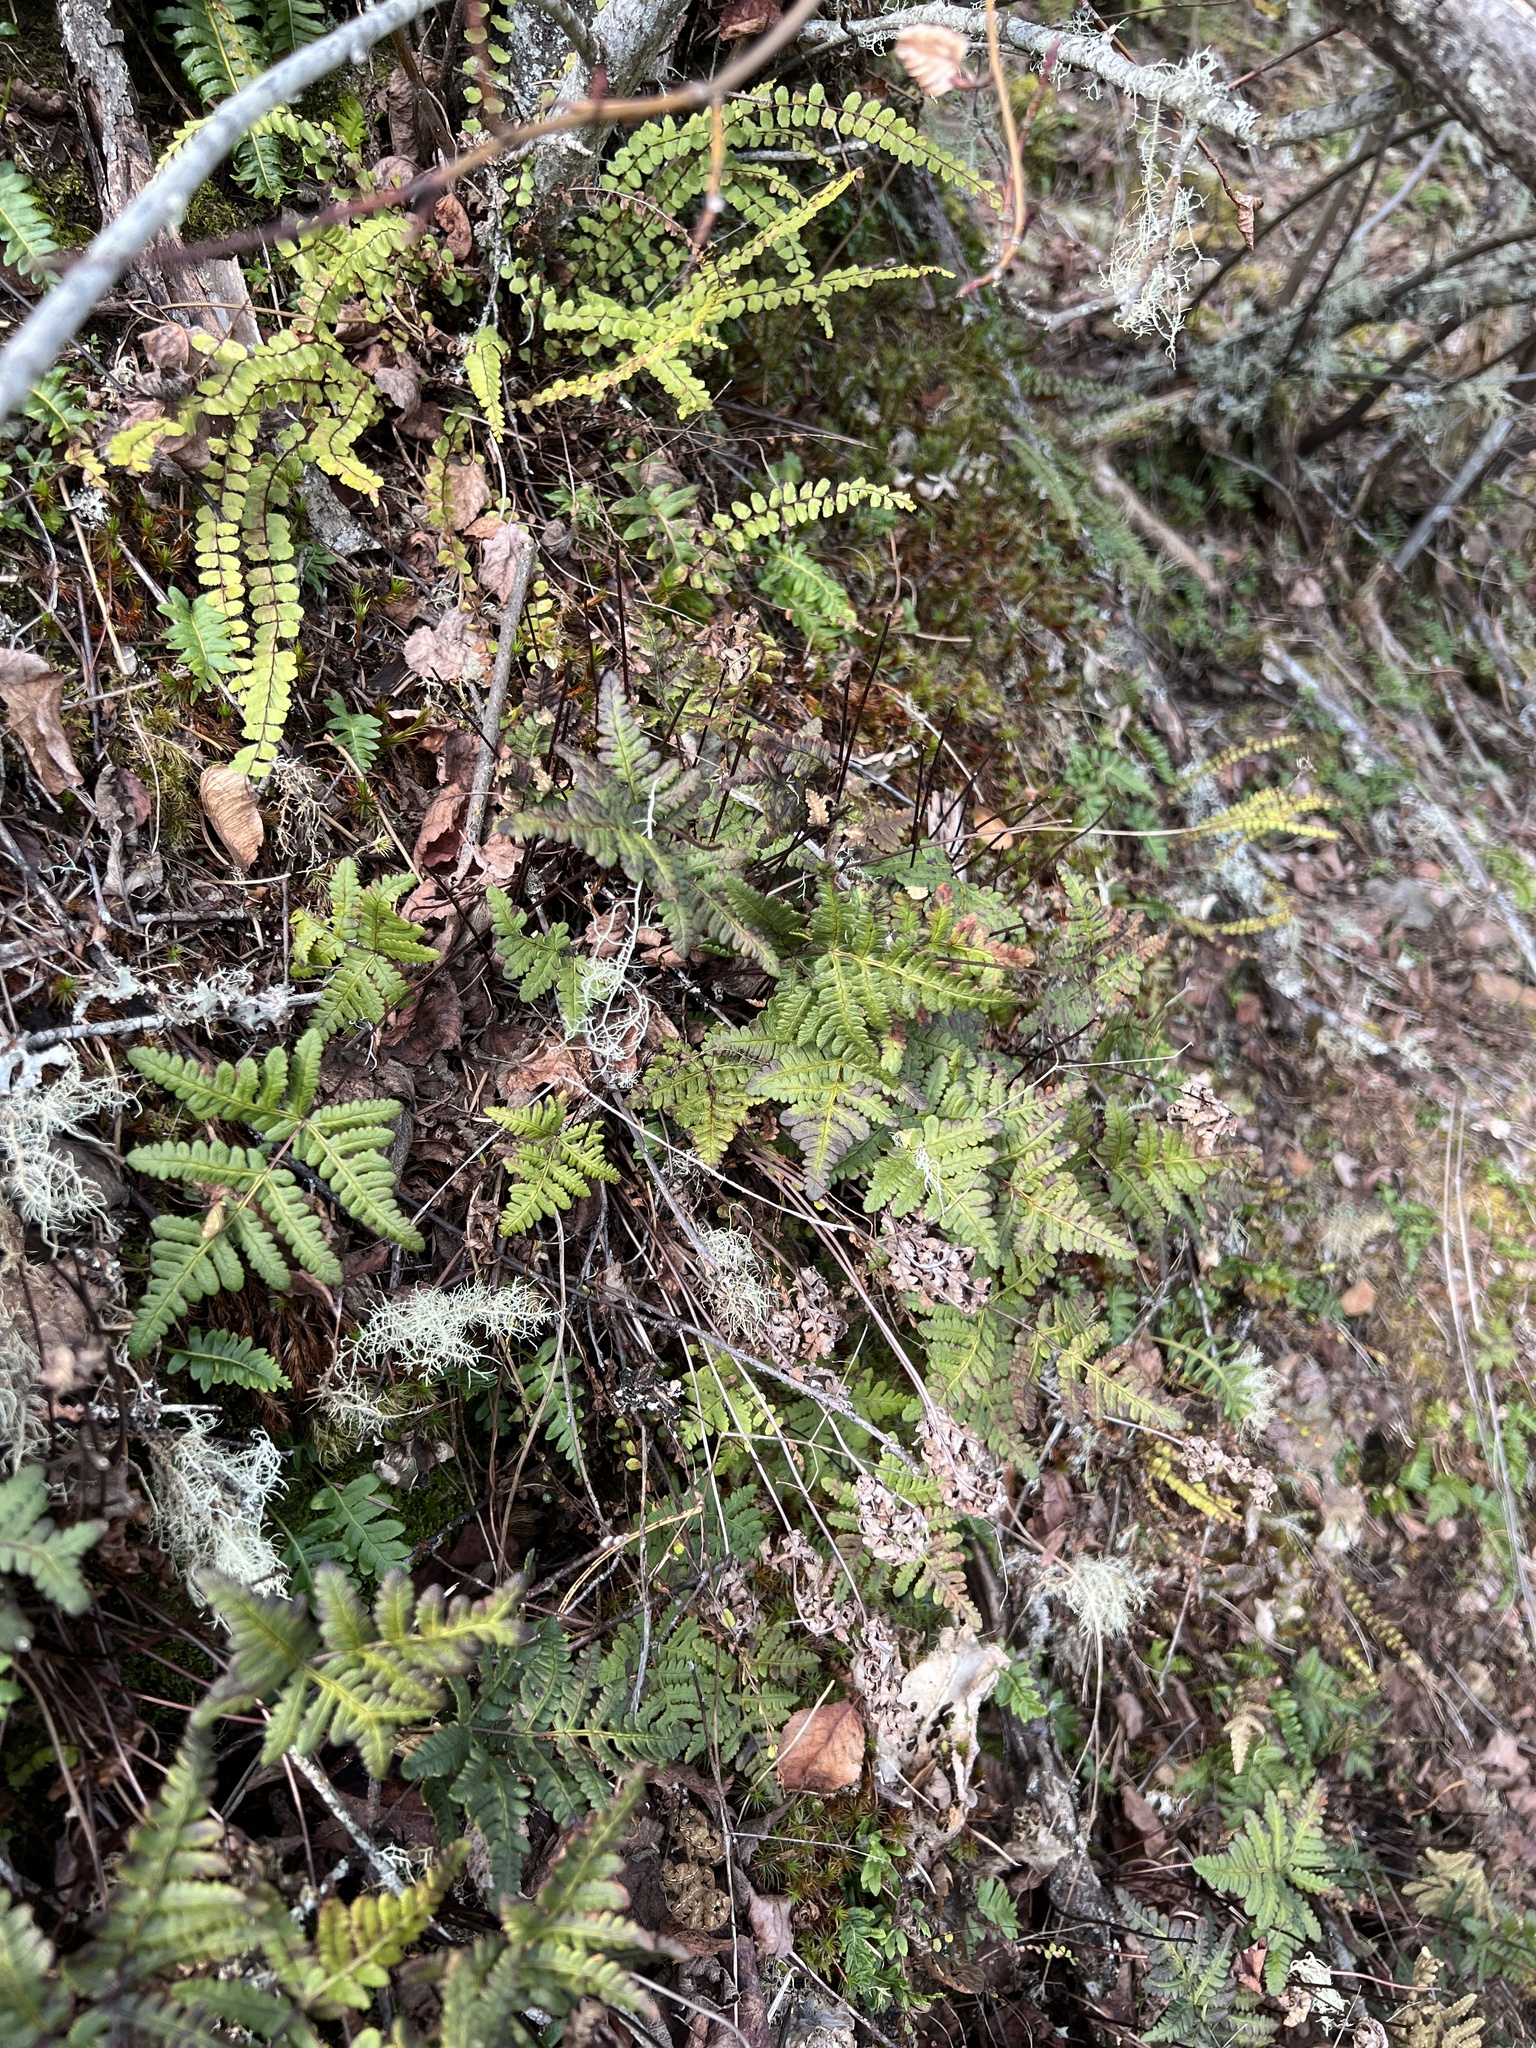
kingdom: Plantae
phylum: Tracheophyta
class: Polypodiopsida
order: Polypodiales
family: Polypodiaceae
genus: Polypodium
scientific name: Polypodium glycyrrhiza
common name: Licorice fern
